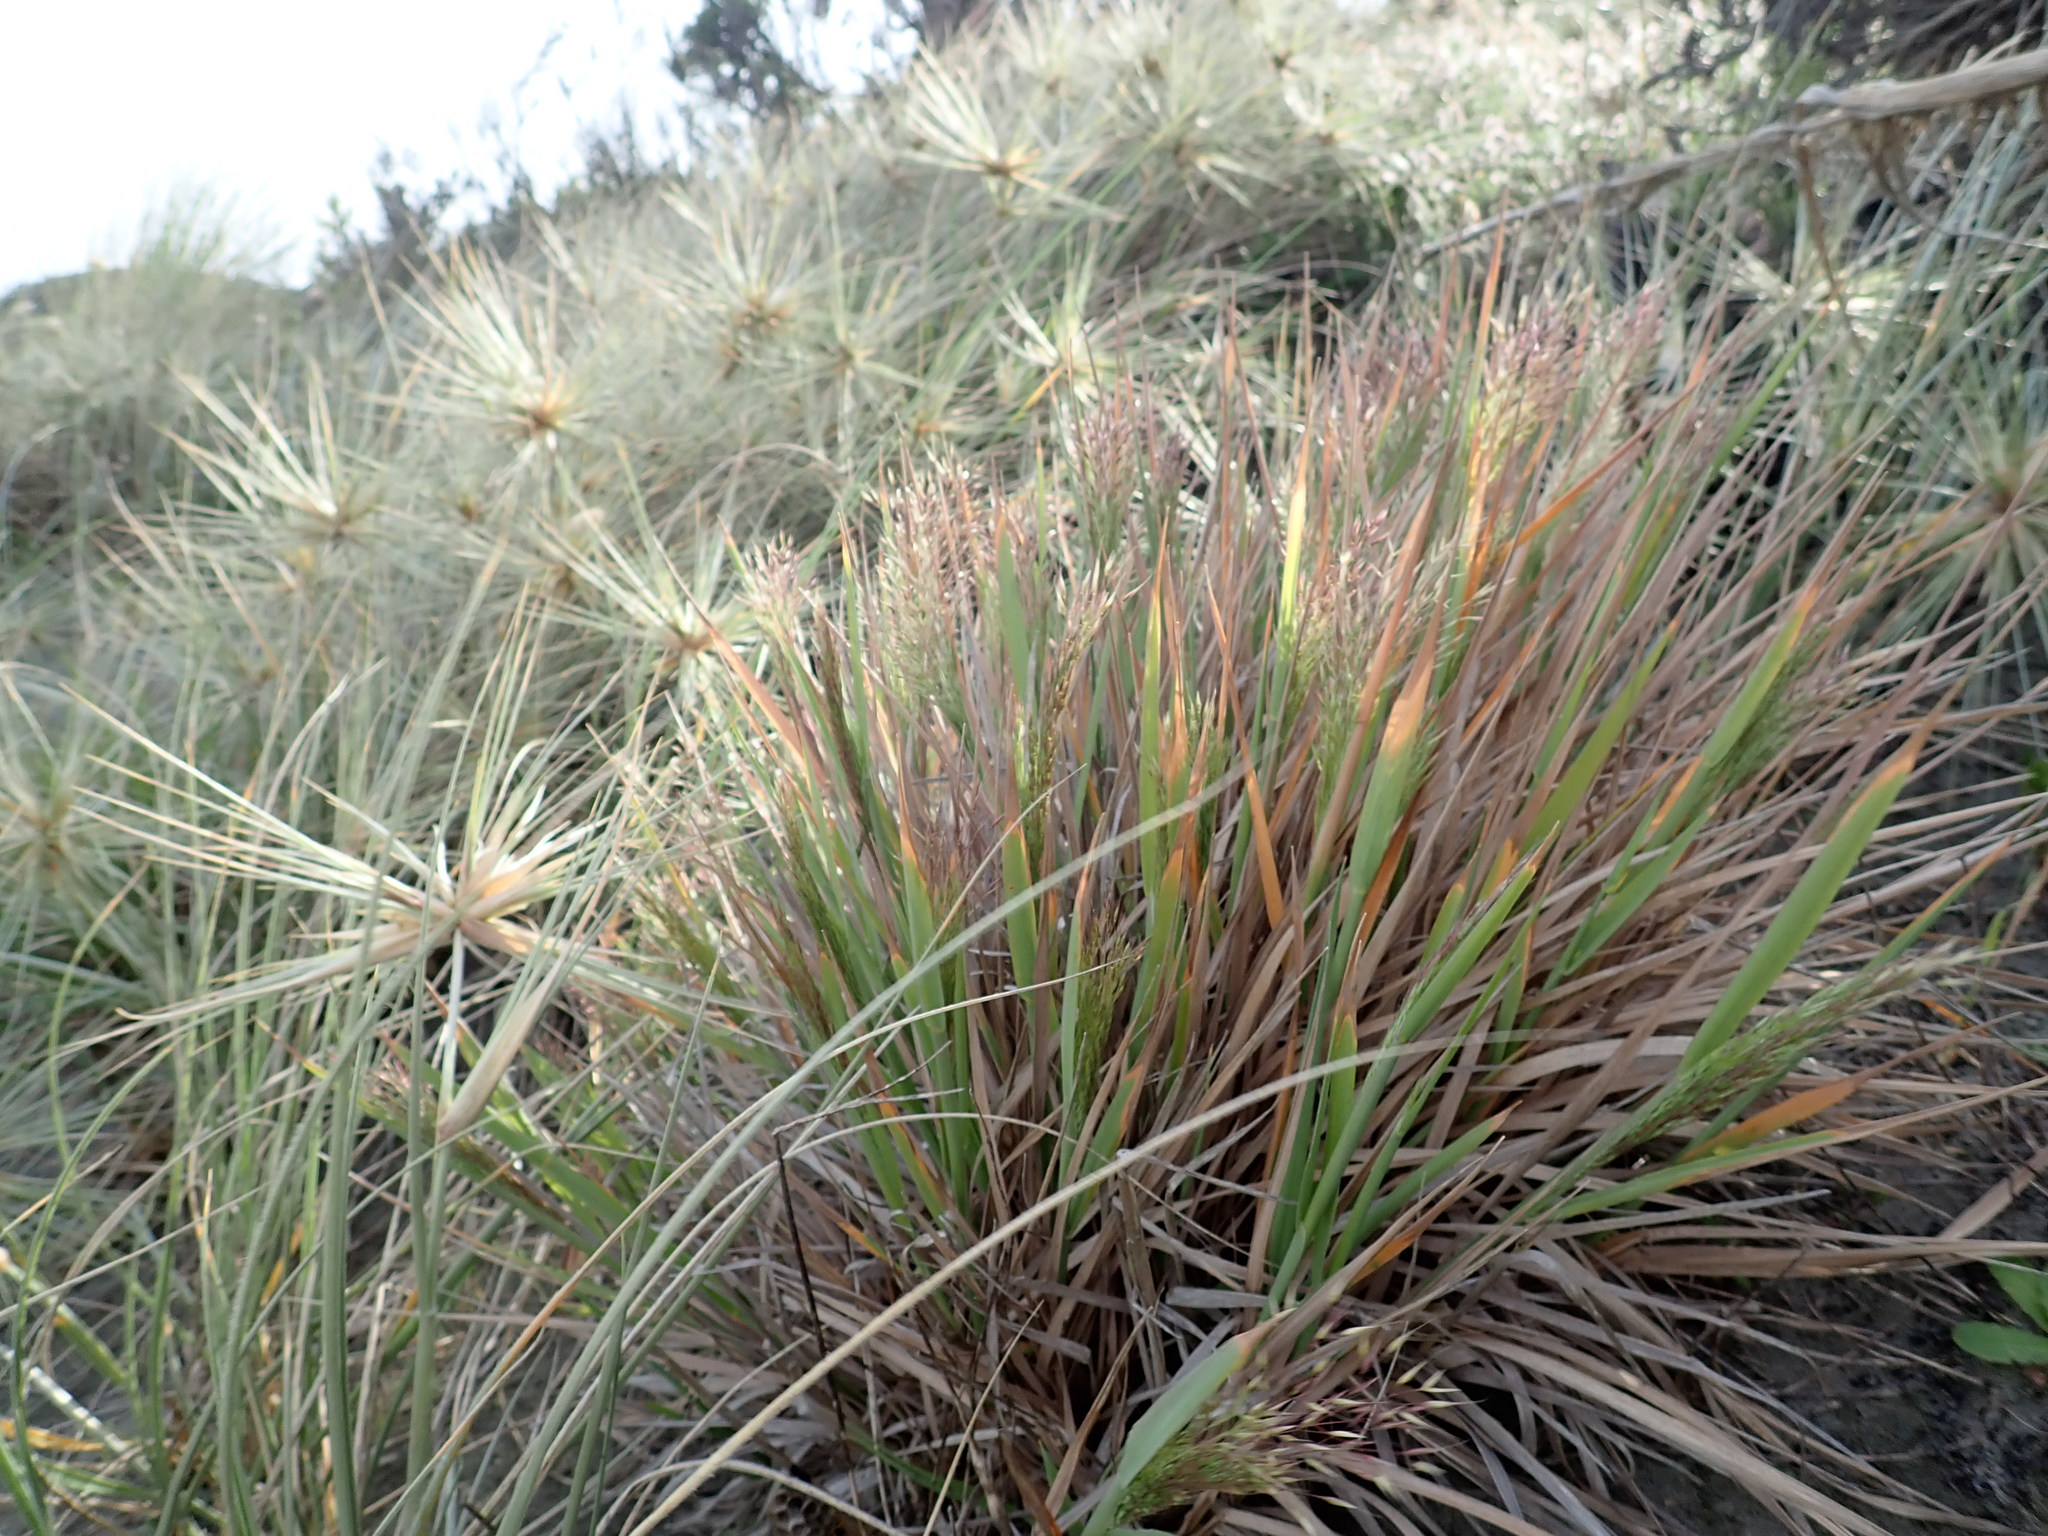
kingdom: Plantae
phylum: Tracheophyta
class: Liliopsida
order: Poales
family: Poaceae
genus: Lachnagrostis
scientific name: Lachnagrostis billardierei
